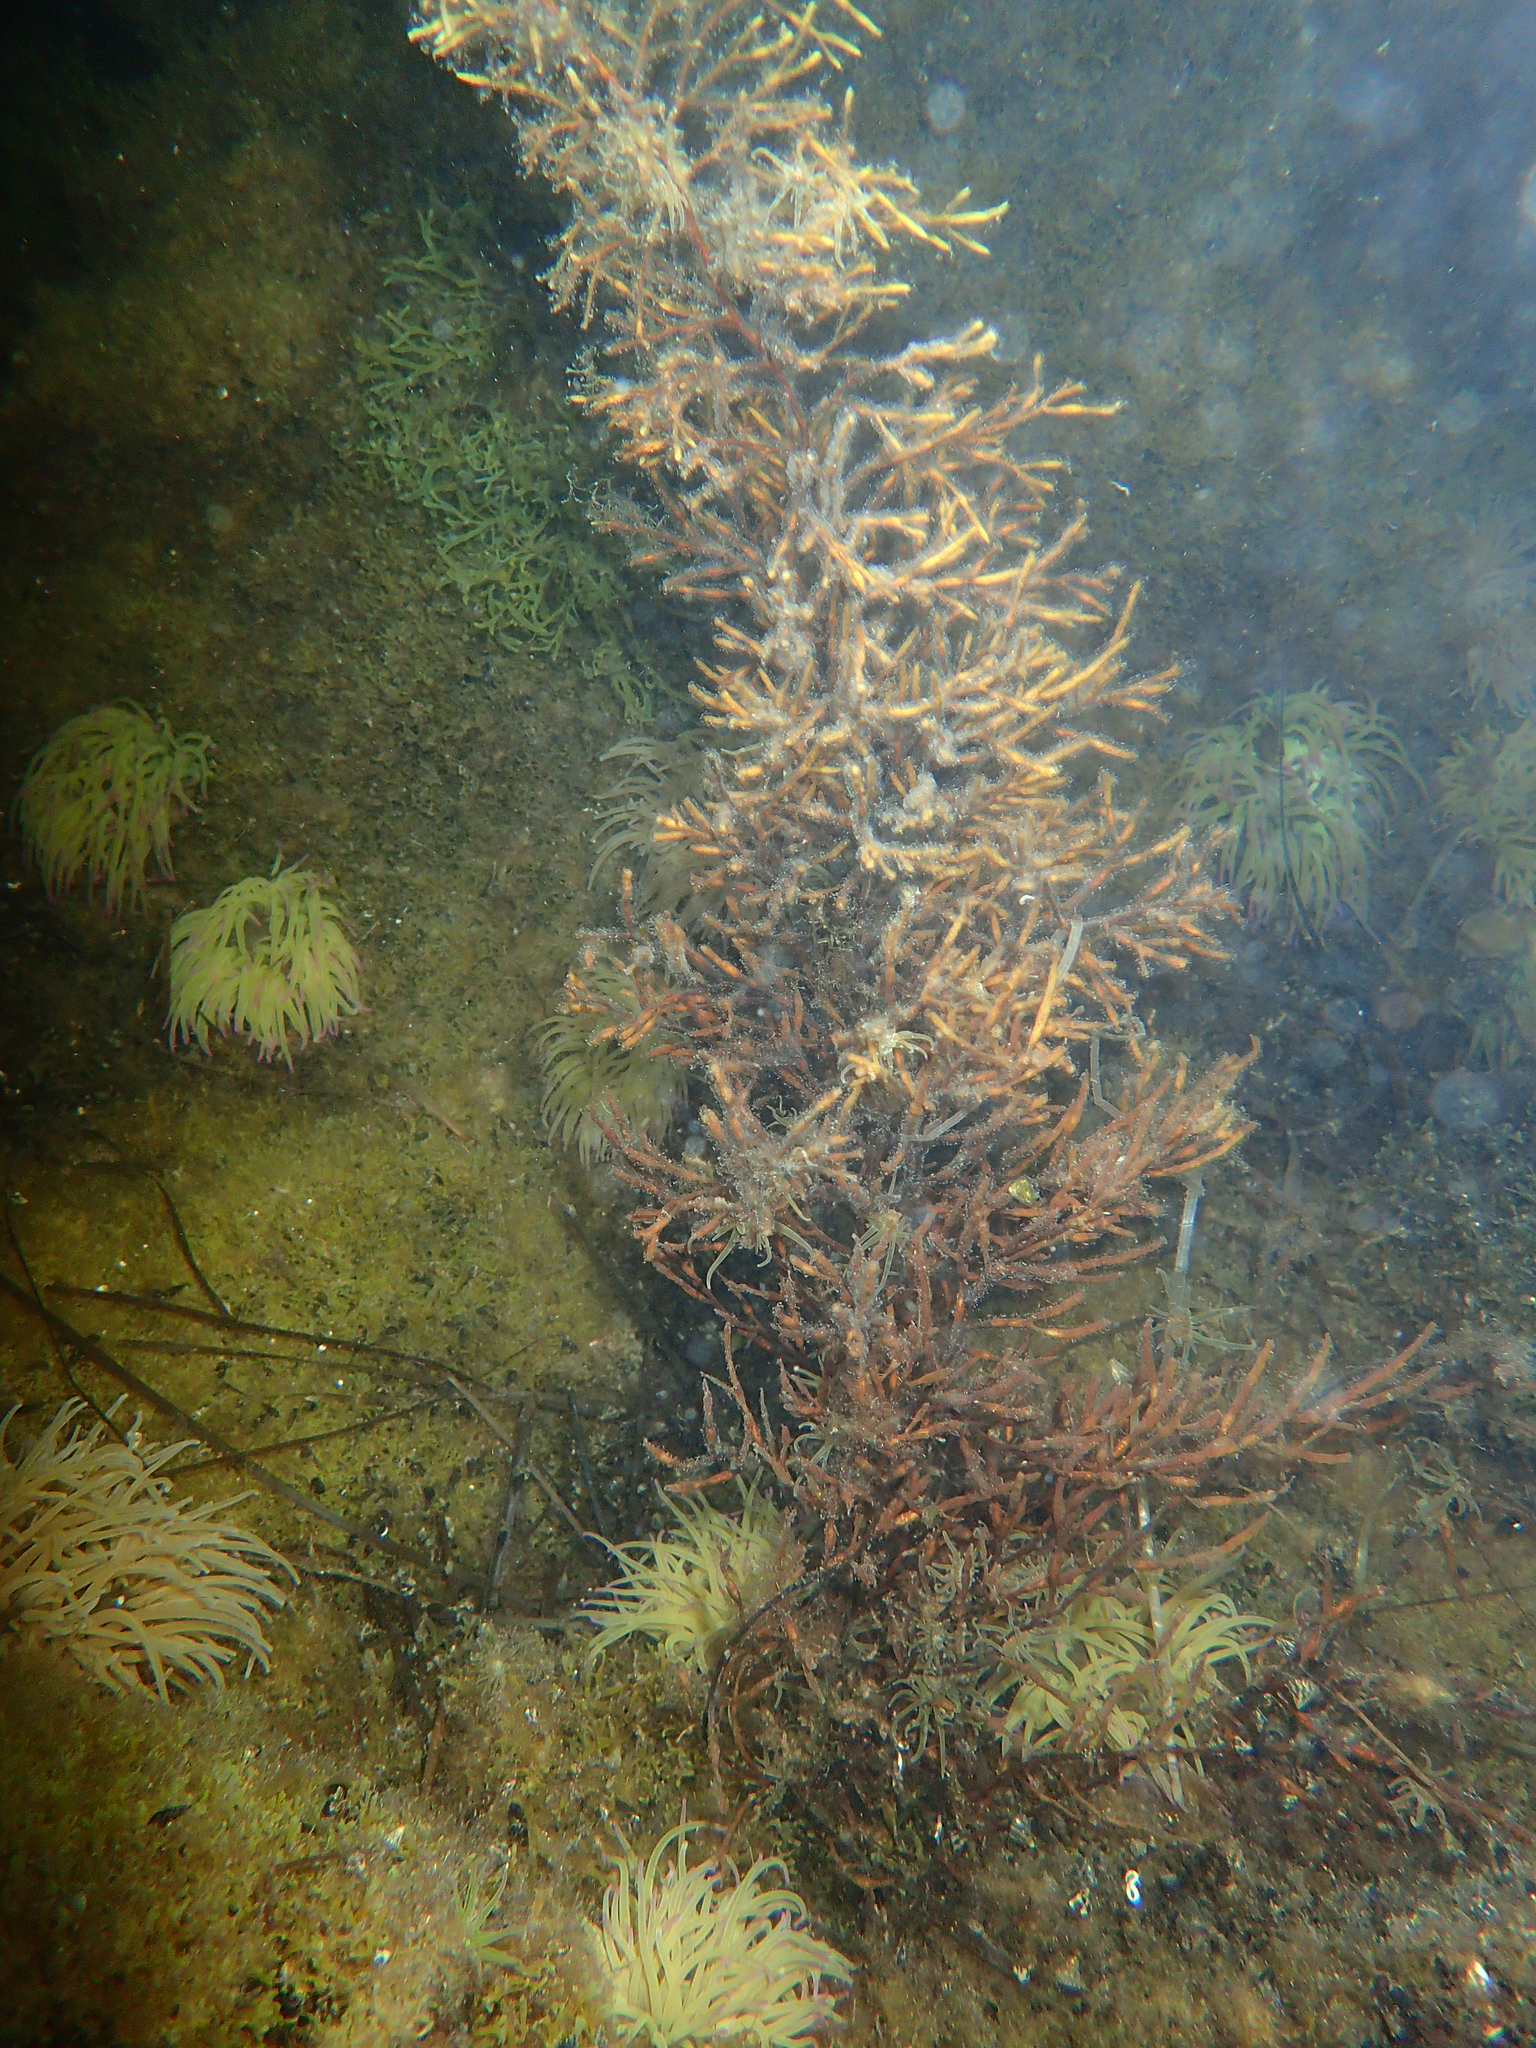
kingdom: Chromista
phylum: Ochrophyta
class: Phaeophyceae
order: Fucales
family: Sargassaceae
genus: Cystoseira
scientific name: Cystoseira Gongolaria barbata
